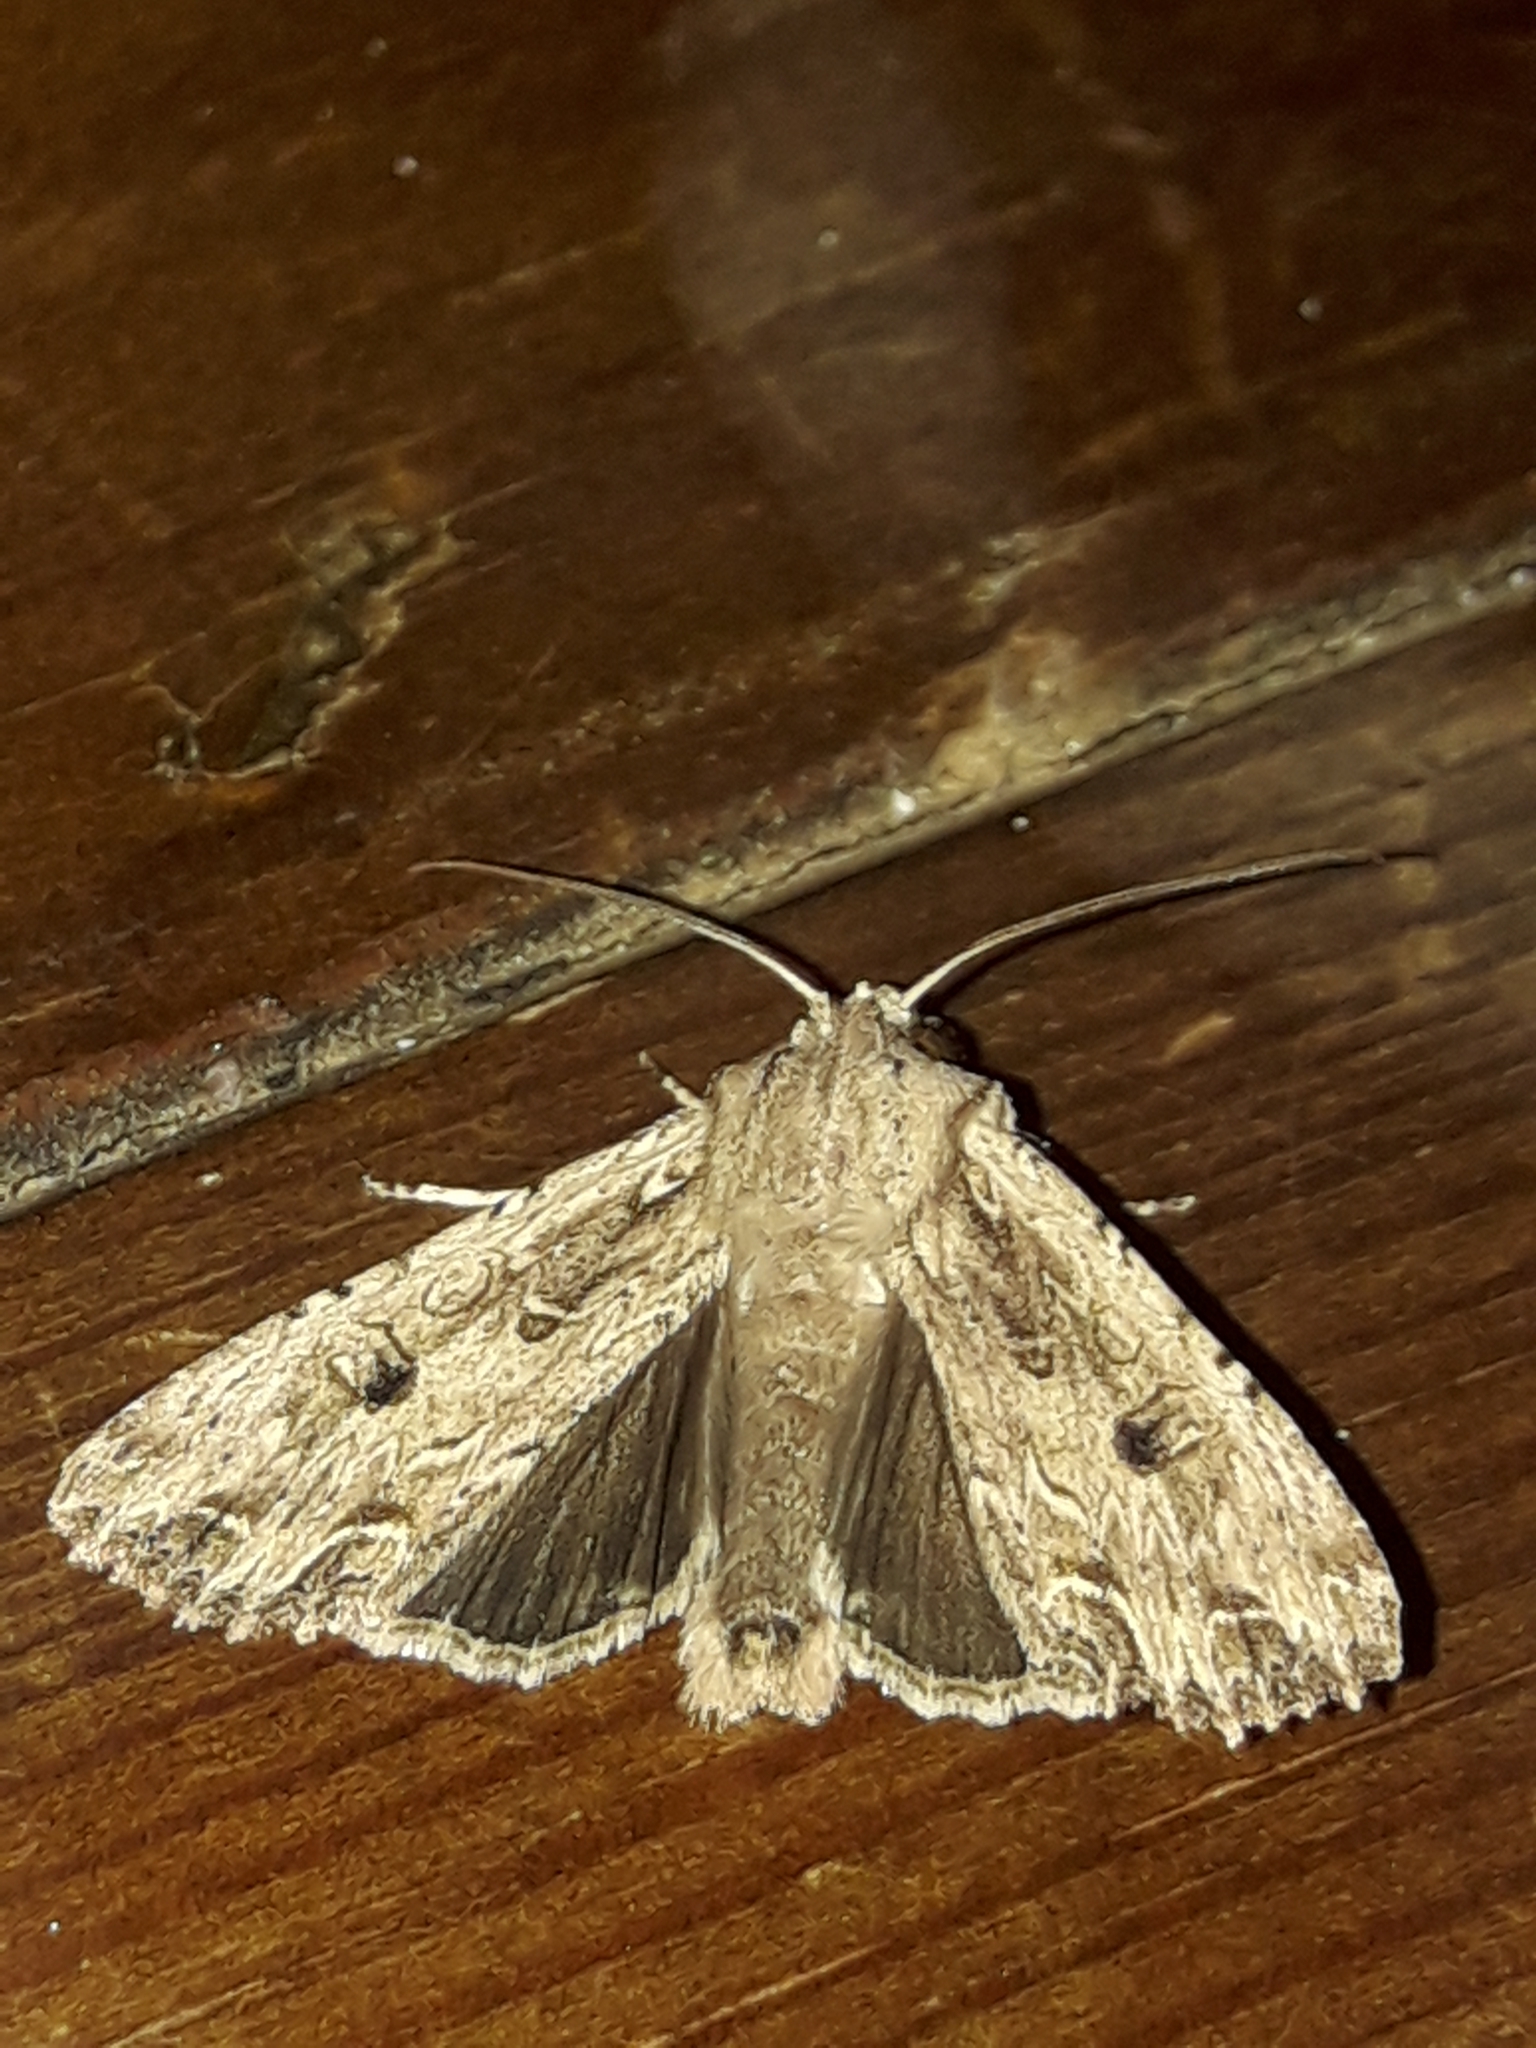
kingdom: Animalia
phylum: Arthropoda
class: Insecta
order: Lepidoptera
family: Noctuidae
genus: Ichneutica
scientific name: Ichneutica lignana
